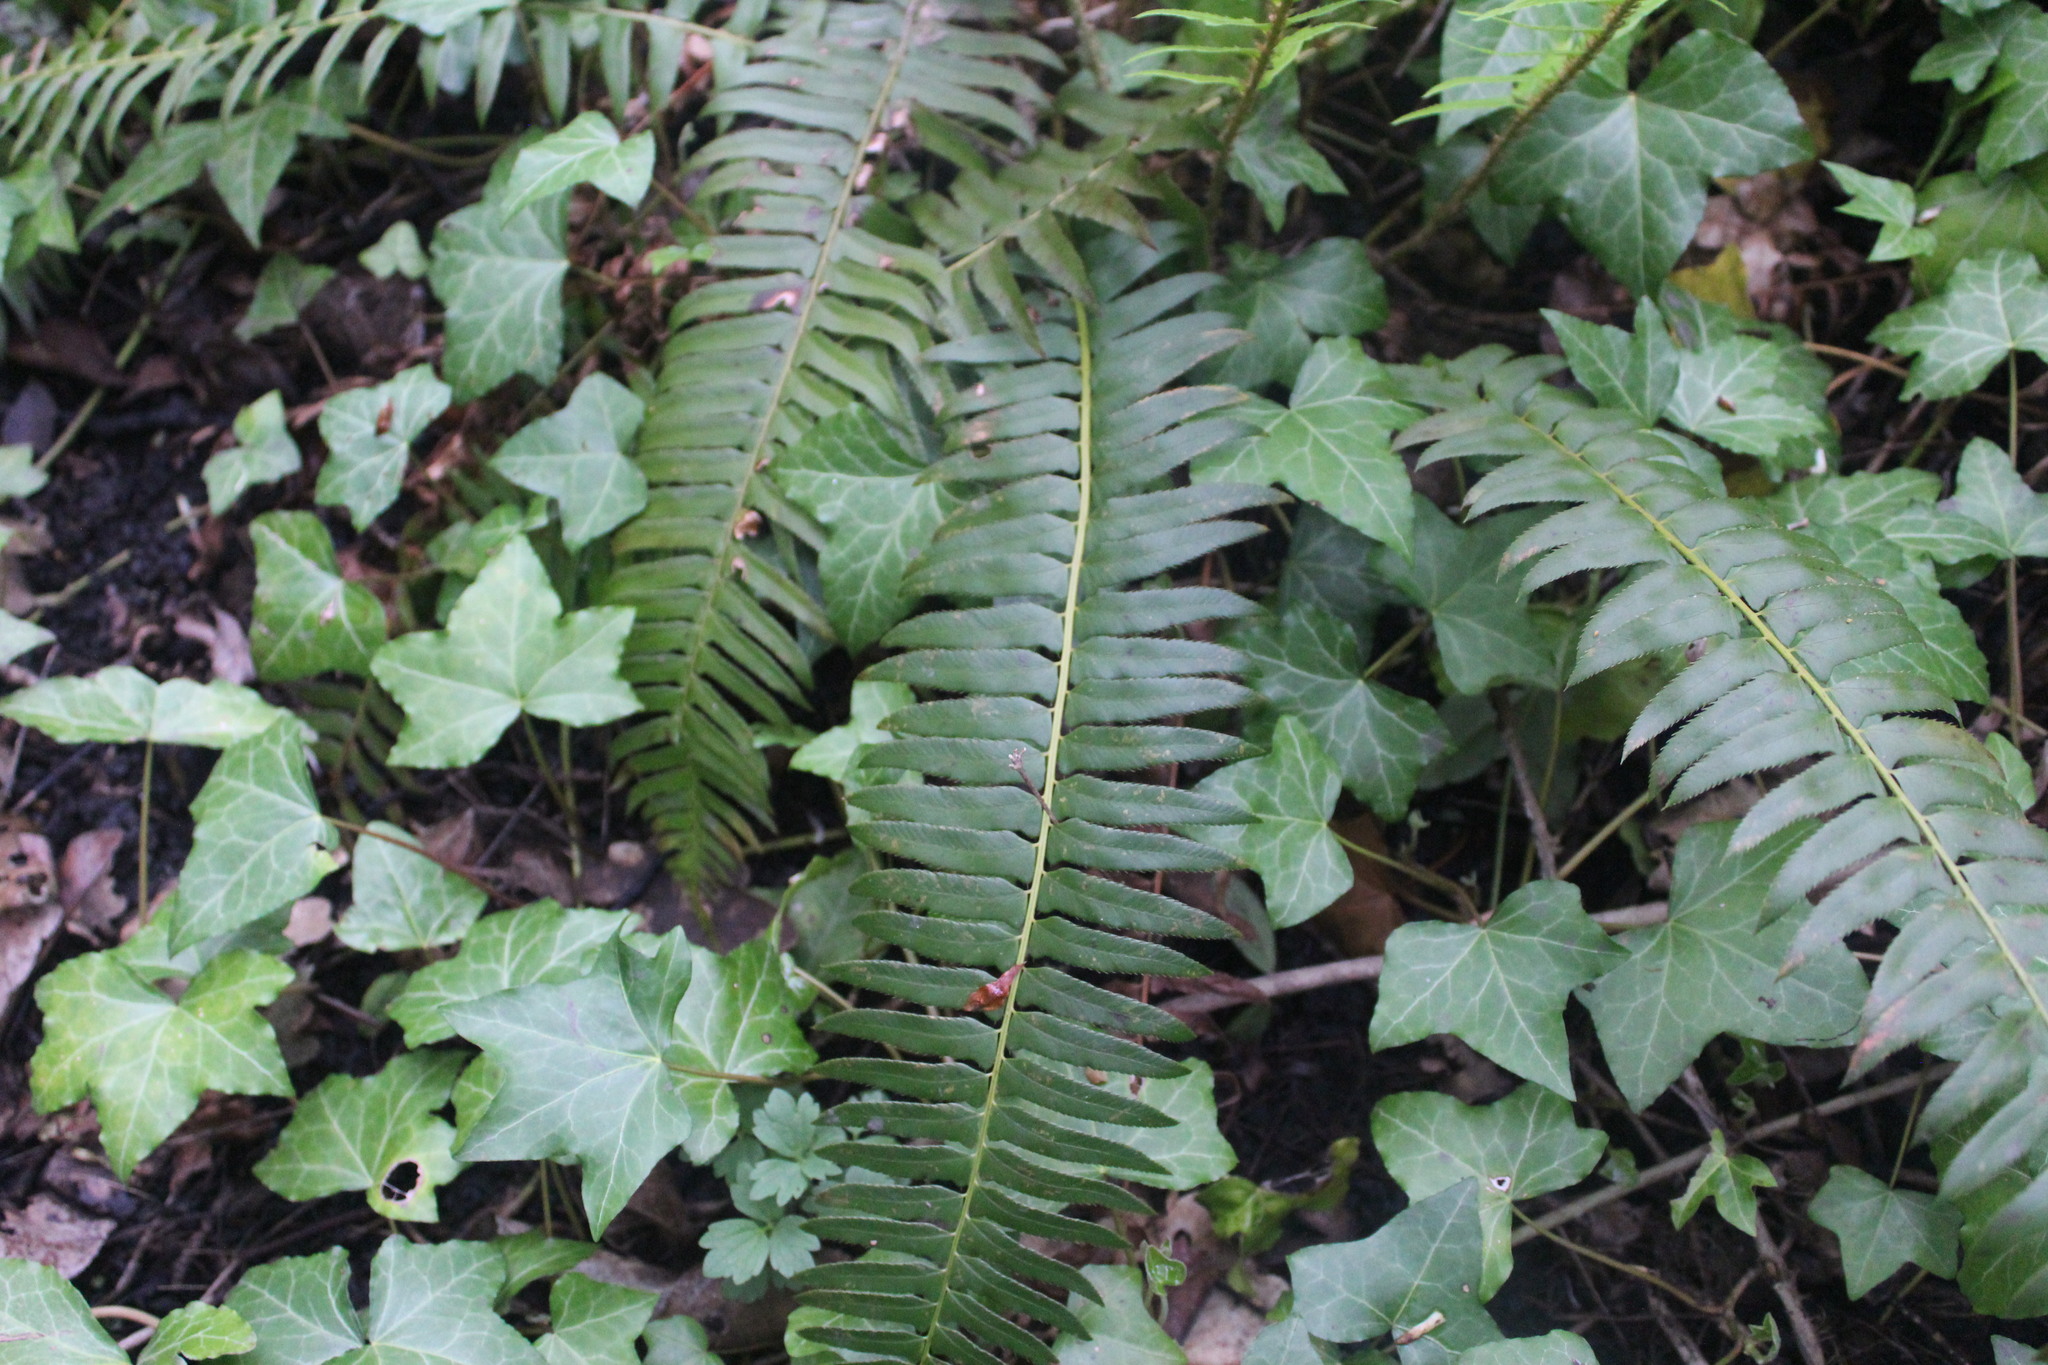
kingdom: Plantae
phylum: Tracheophyta
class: Polypodiopsida
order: Polypodiales
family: Dryopteridaceae
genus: Polystichum
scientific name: Polystichum munitum
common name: Western sword-fern
